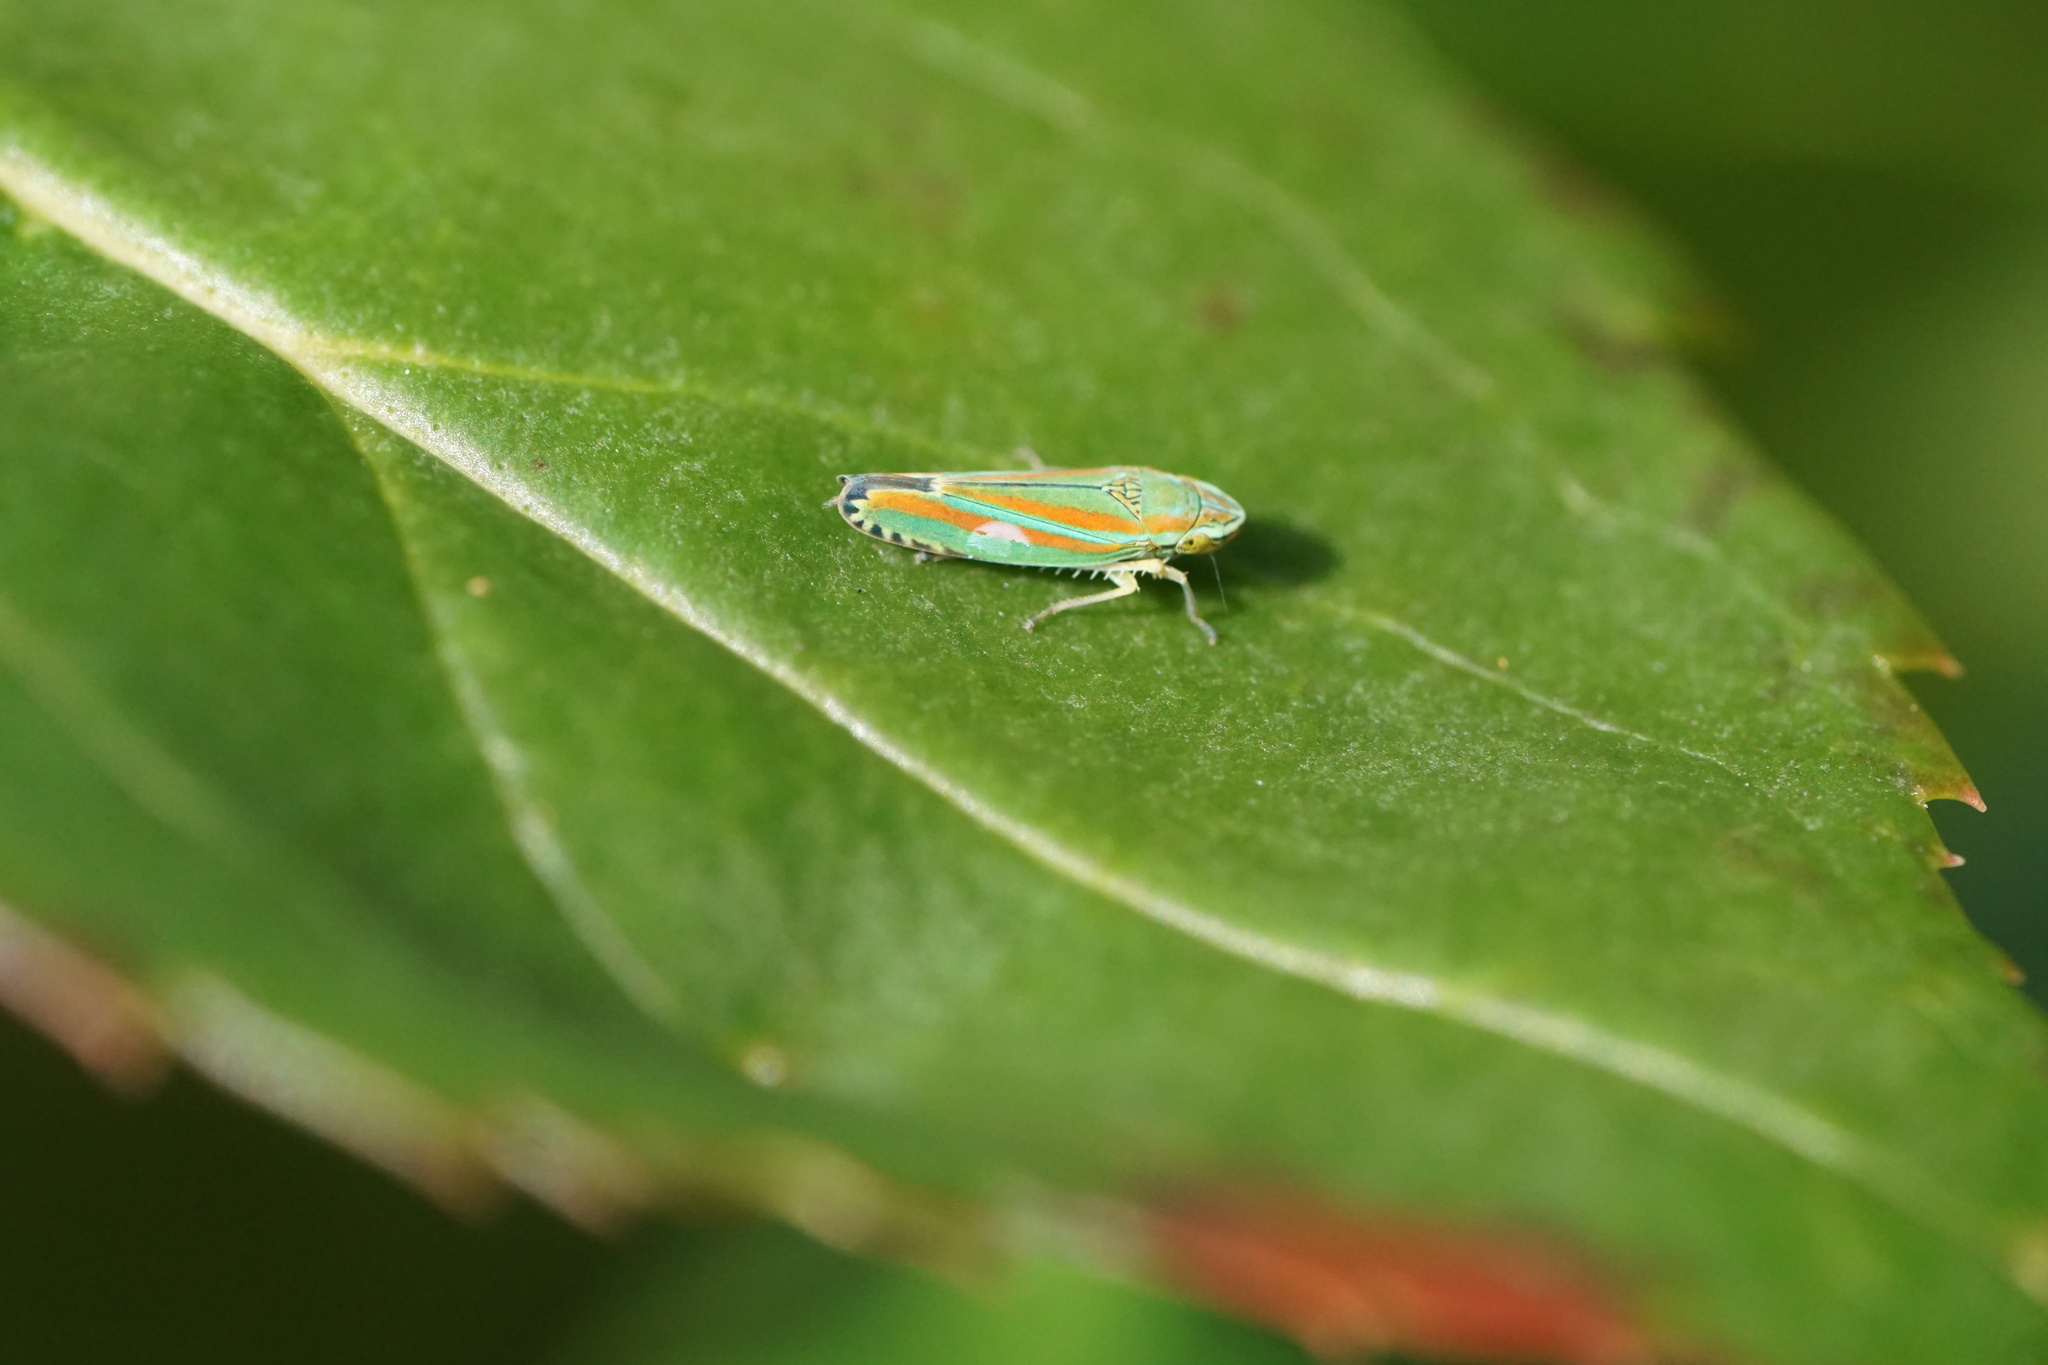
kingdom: Animalia
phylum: Arthropoda
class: Insecta
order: Hemiptera
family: Cicadellidae
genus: Graphocephala
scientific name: Graphocephala versuta
